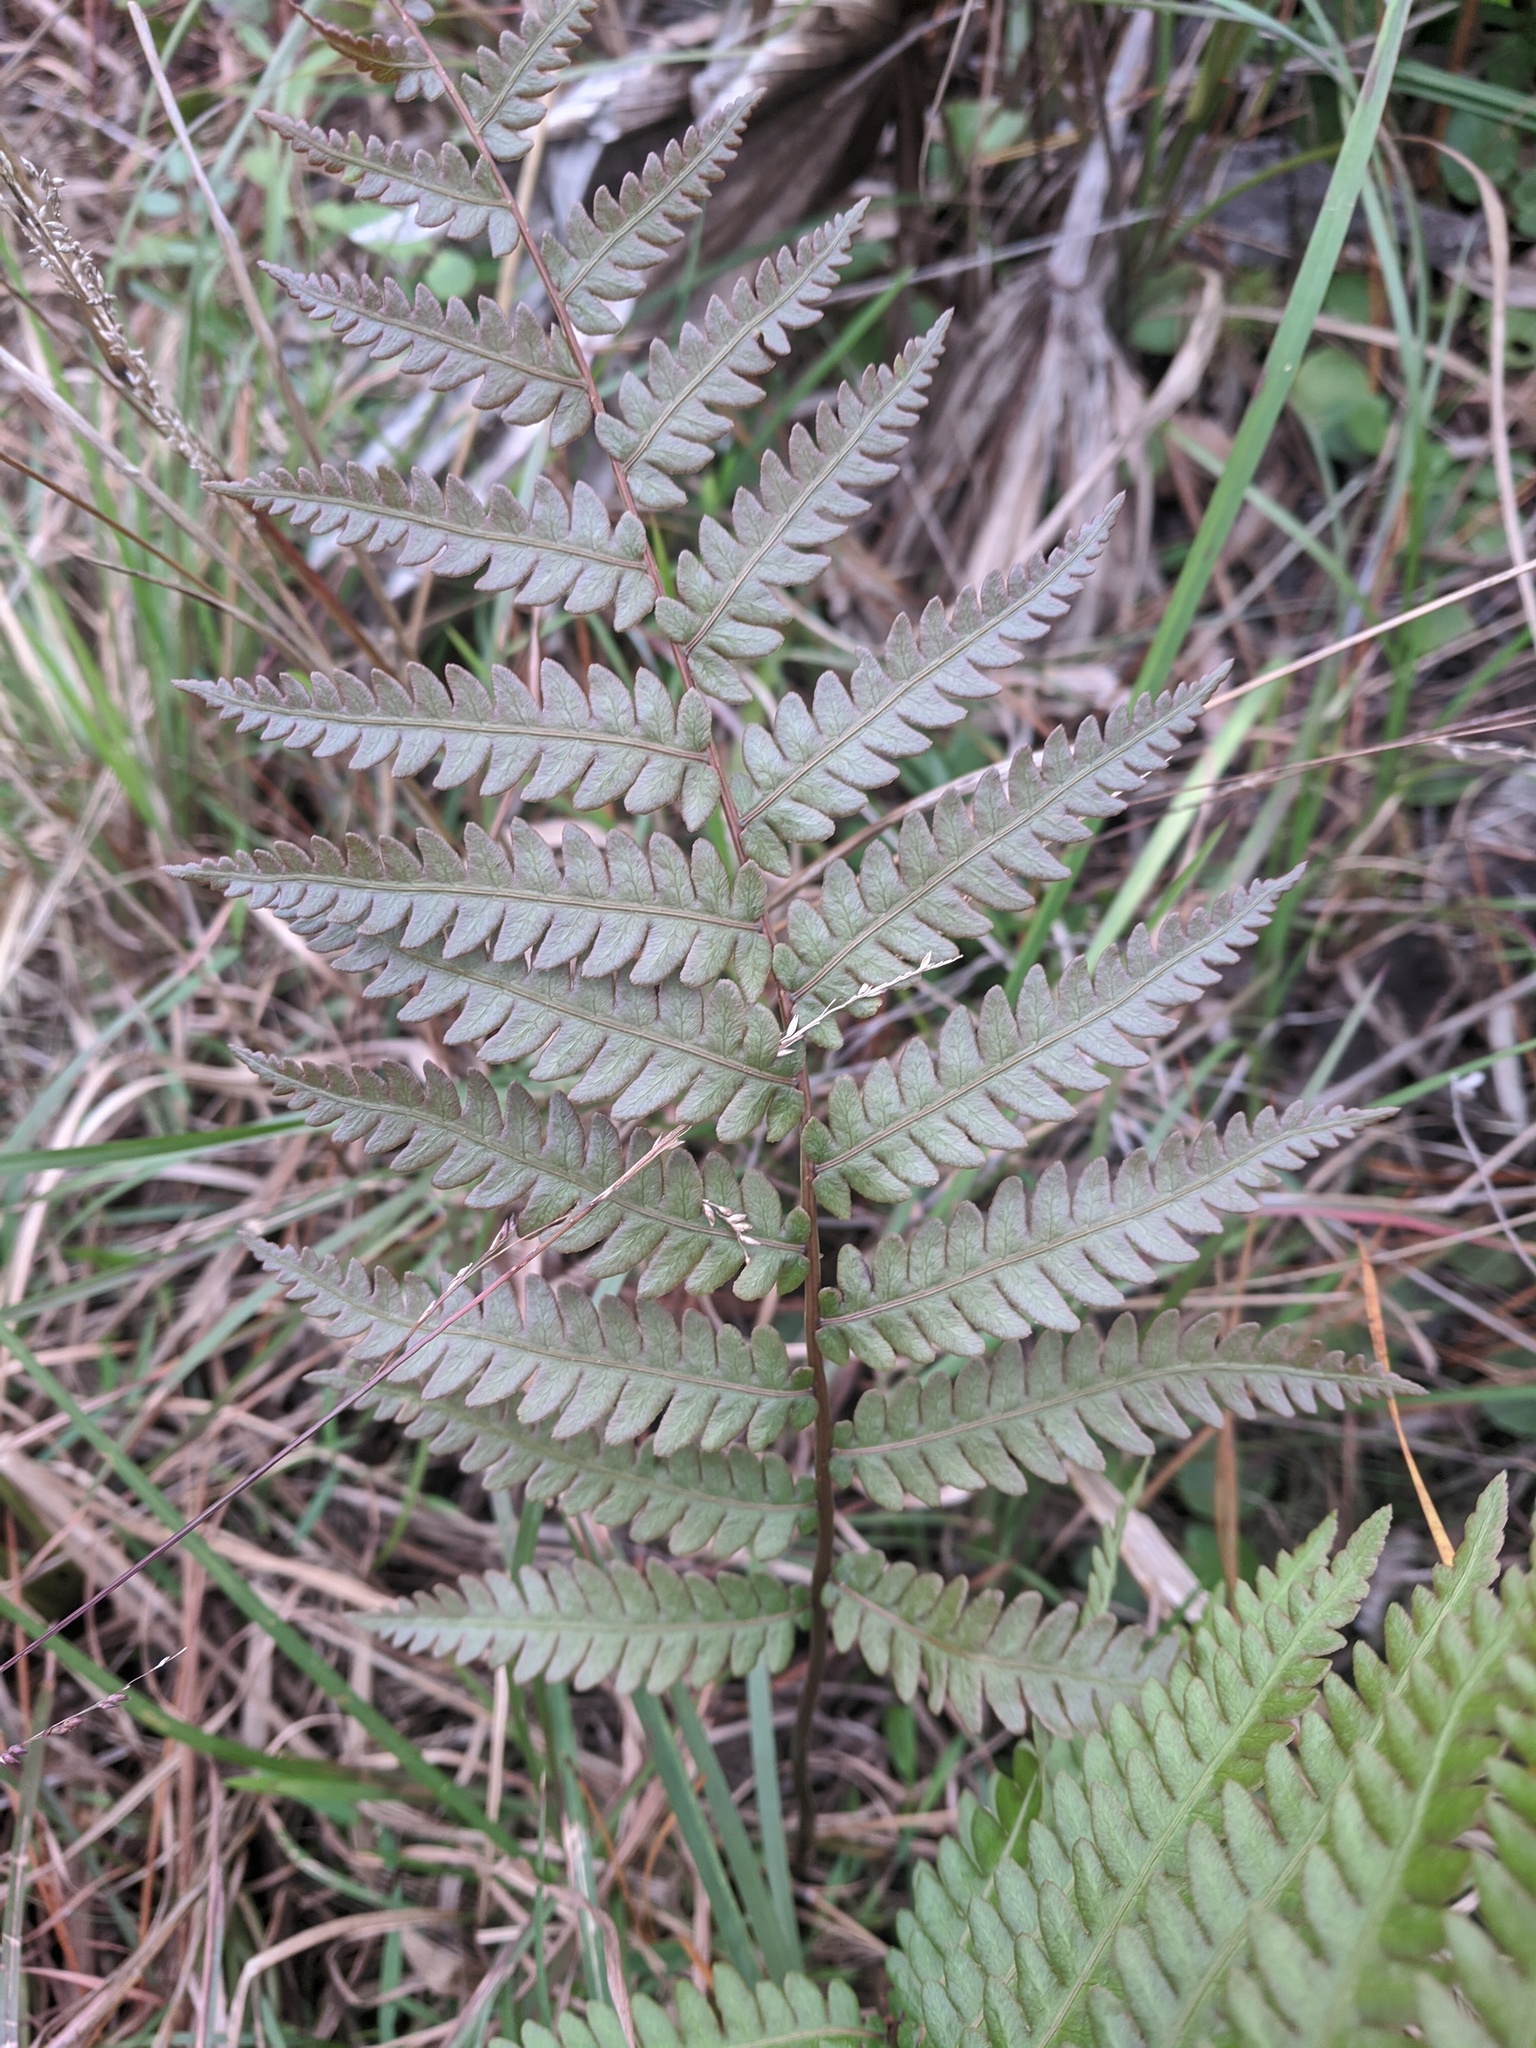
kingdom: Plantae
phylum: Tracheophyta
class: Polypodiopsida
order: Polypodiales
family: Blechnaceae
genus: Anchistea
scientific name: Anchistea virginica
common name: Virginia chain fern
